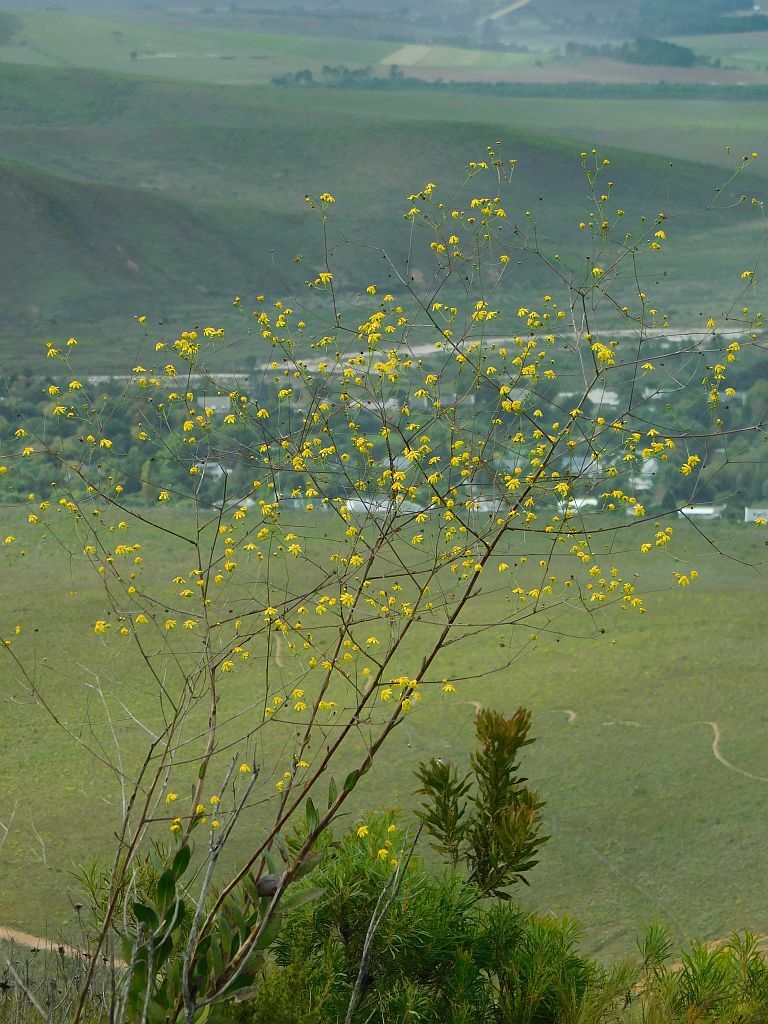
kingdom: Plantae
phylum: Tracheophyta
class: Magnoliopsida
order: Asterales
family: Asteraceae
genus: Othonna
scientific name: Othonna quinquedentata
